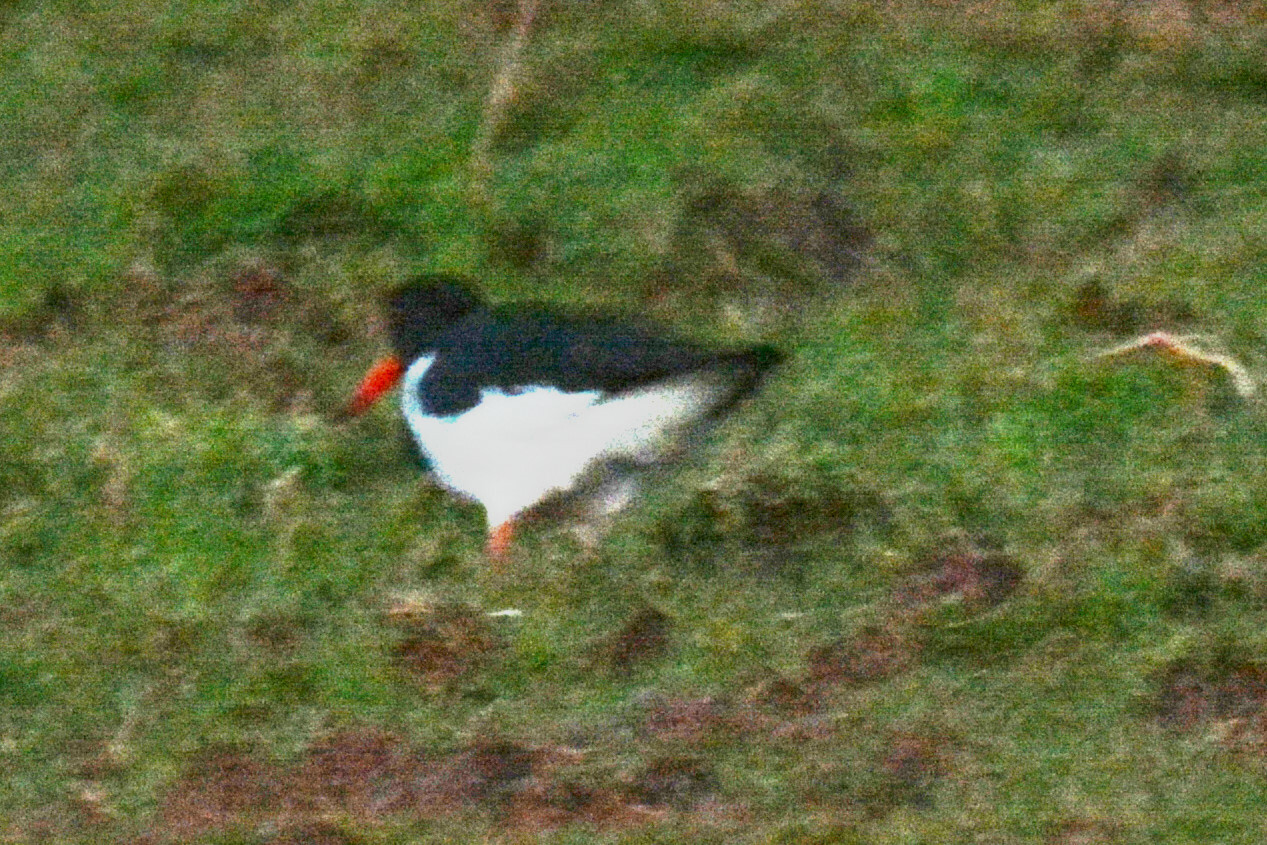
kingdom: Animalia
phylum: Chordata
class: Aves
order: Charadriiformes
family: Haematopodidae
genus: Haematopus
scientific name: Haematopus ostralegus
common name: Eurasian oystercatcher
